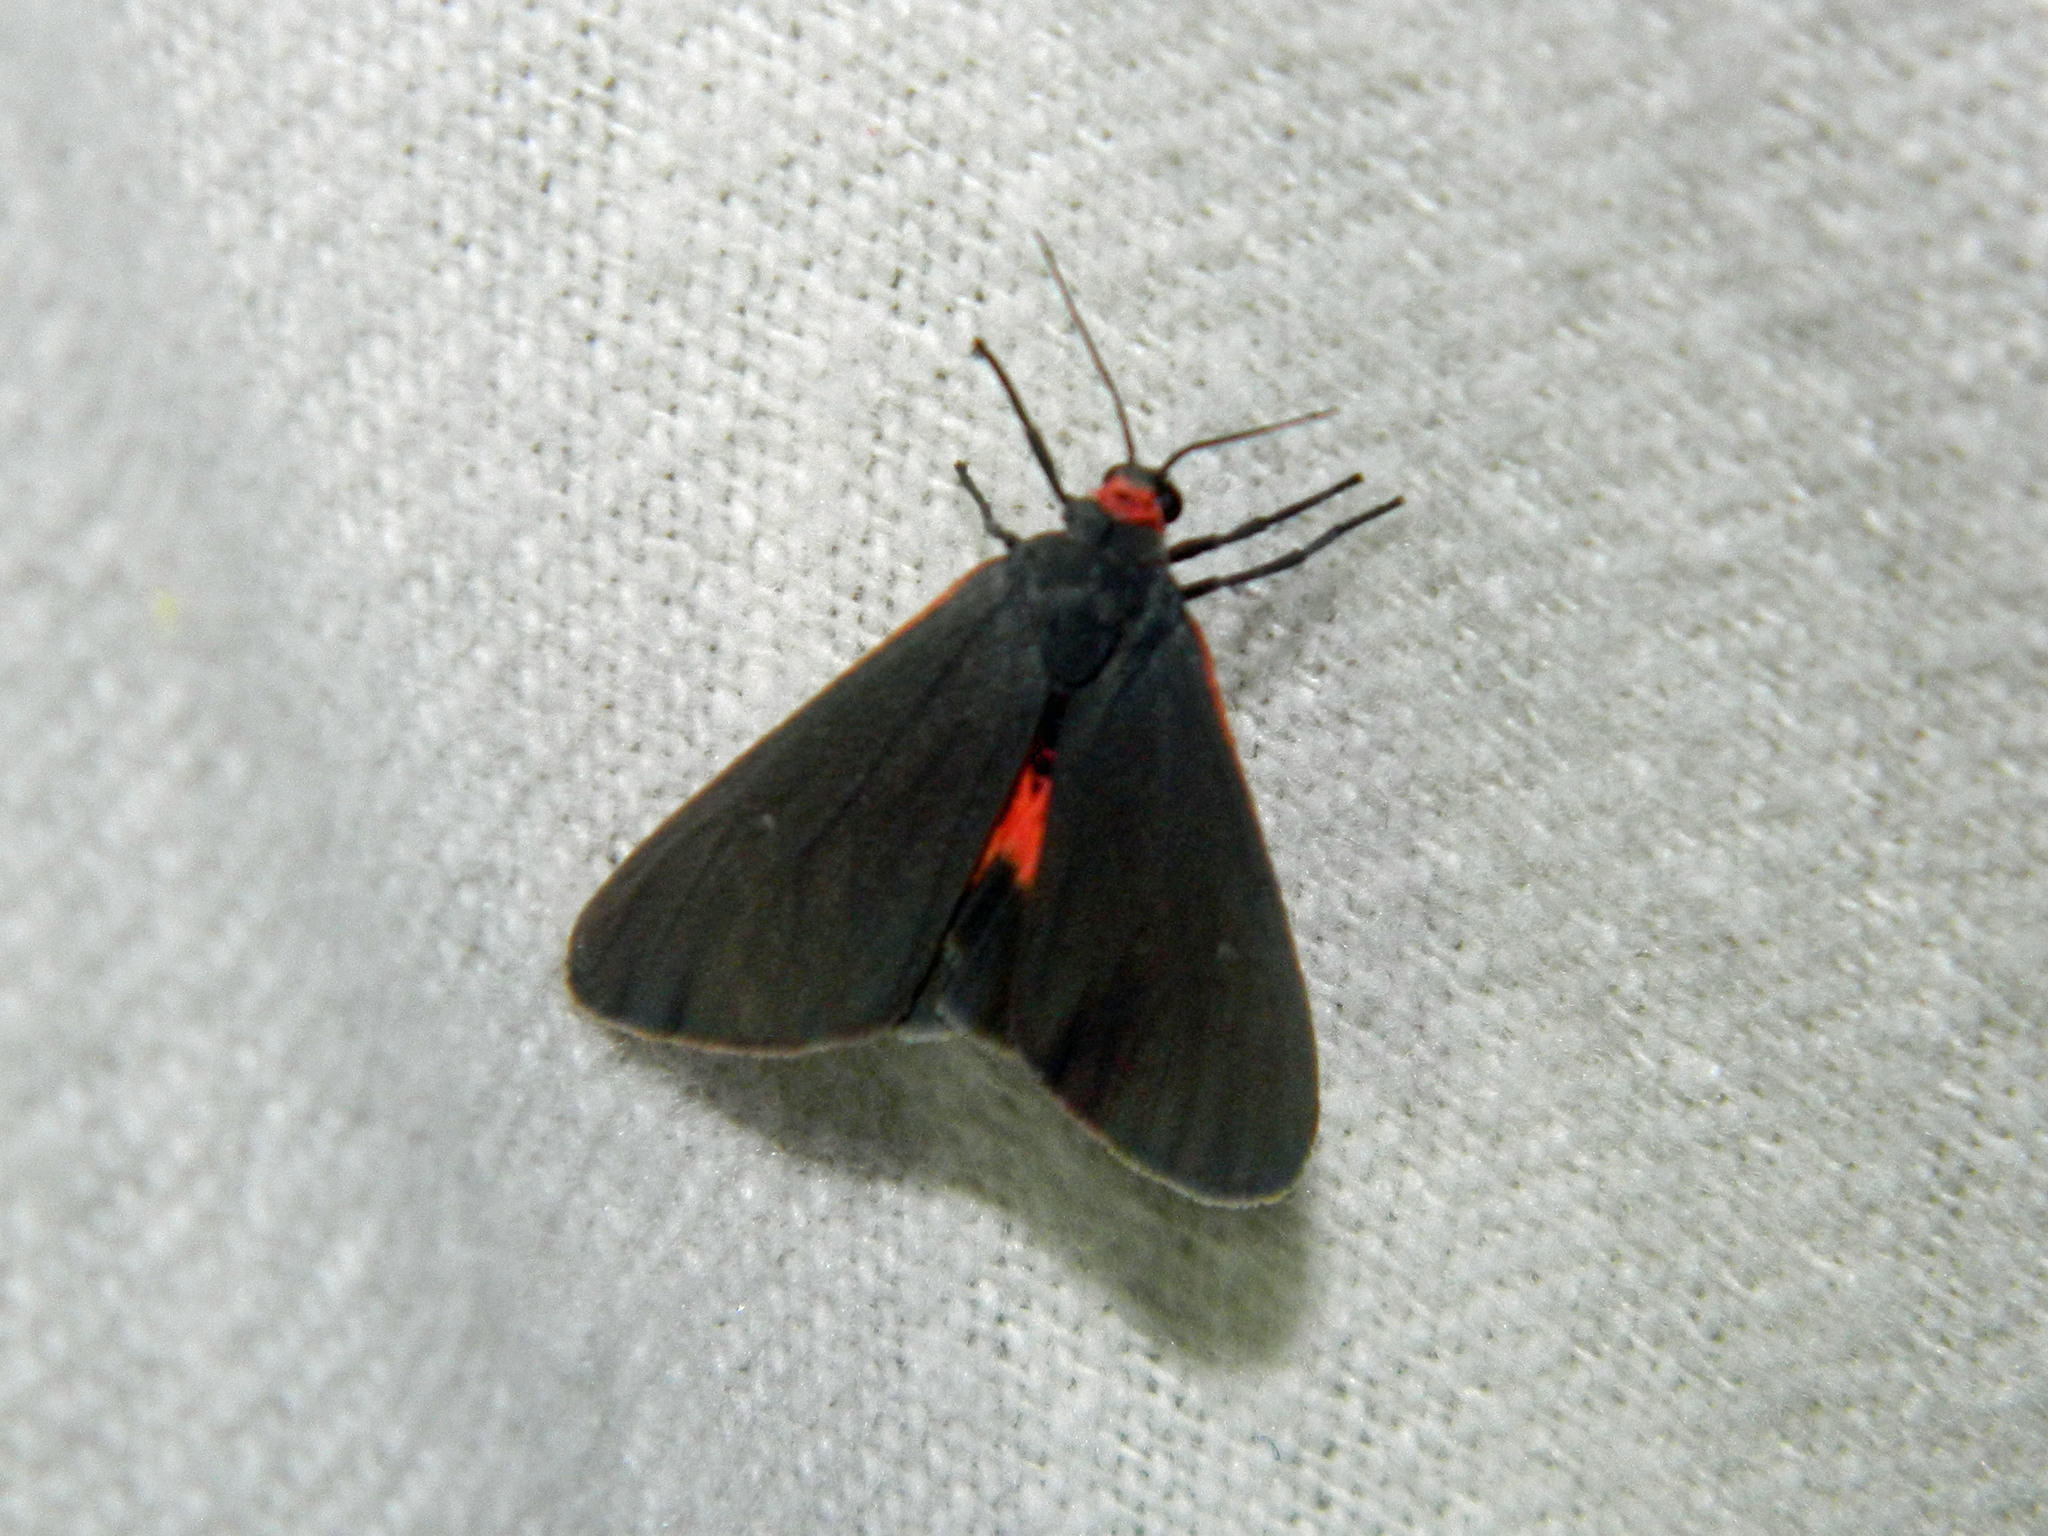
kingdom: Animalia
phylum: Arthropoda
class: Insecta
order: Lepidoptera
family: Erebidae
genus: Virbia
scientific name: Virbia laeta
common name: Joyful holomelina moth
